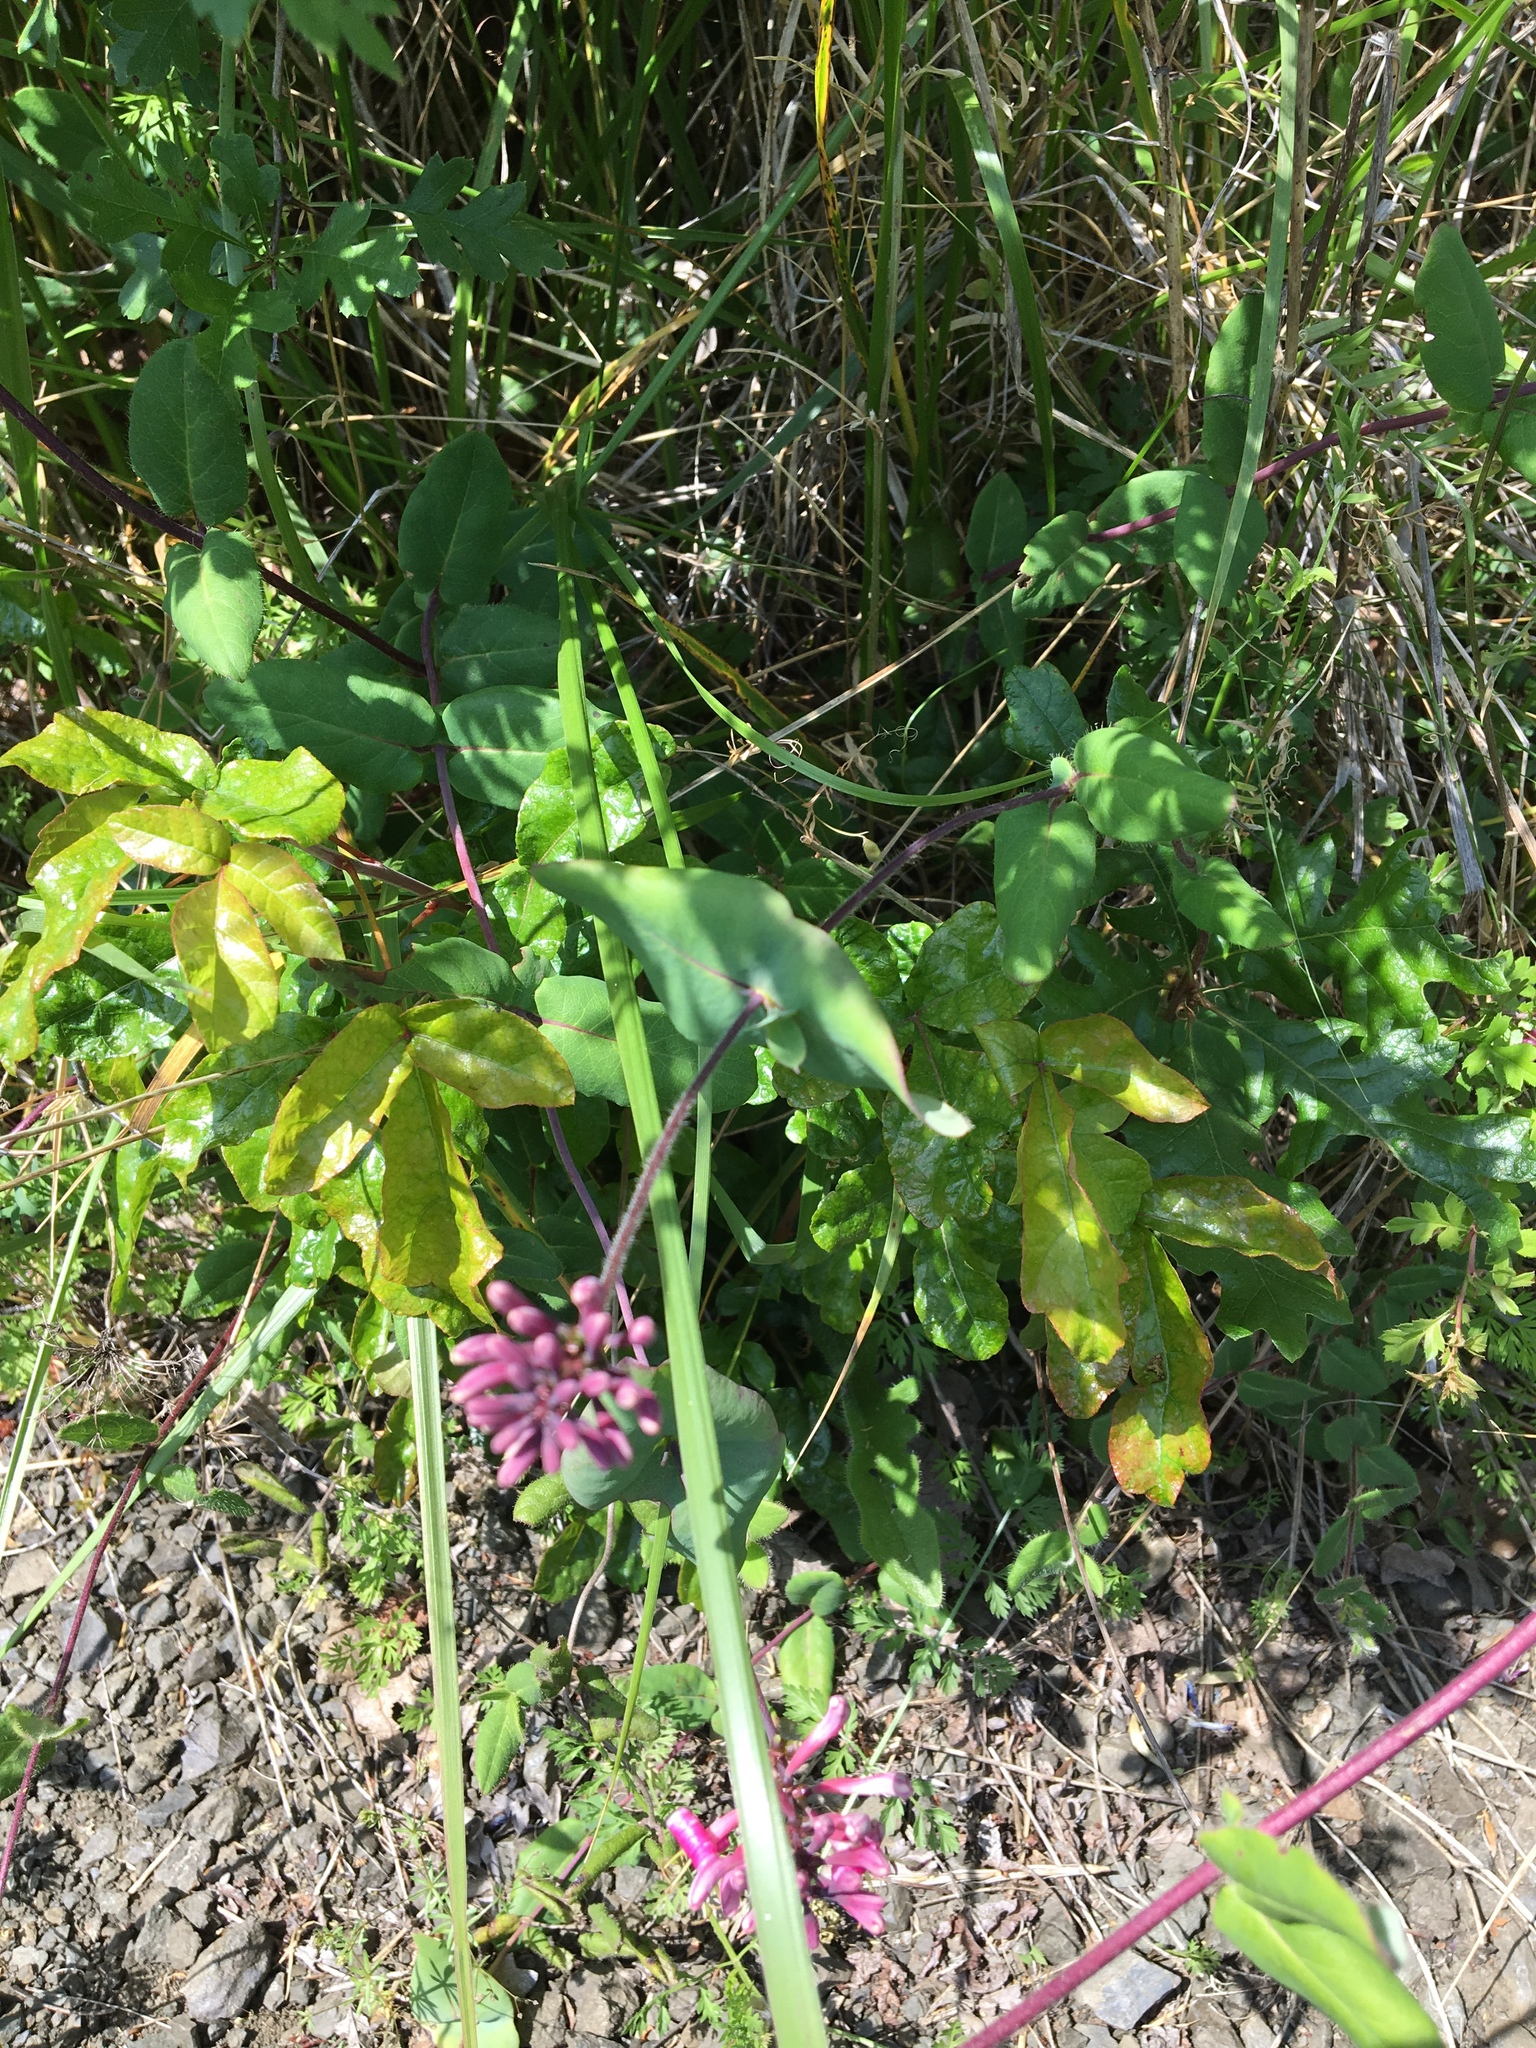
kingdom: Plantae
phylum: Tracheophyta
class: Magnoliopsida
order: Dipsacales
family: Caprifoliaceae
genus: Lonicera
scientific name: Lonicera hispidula
